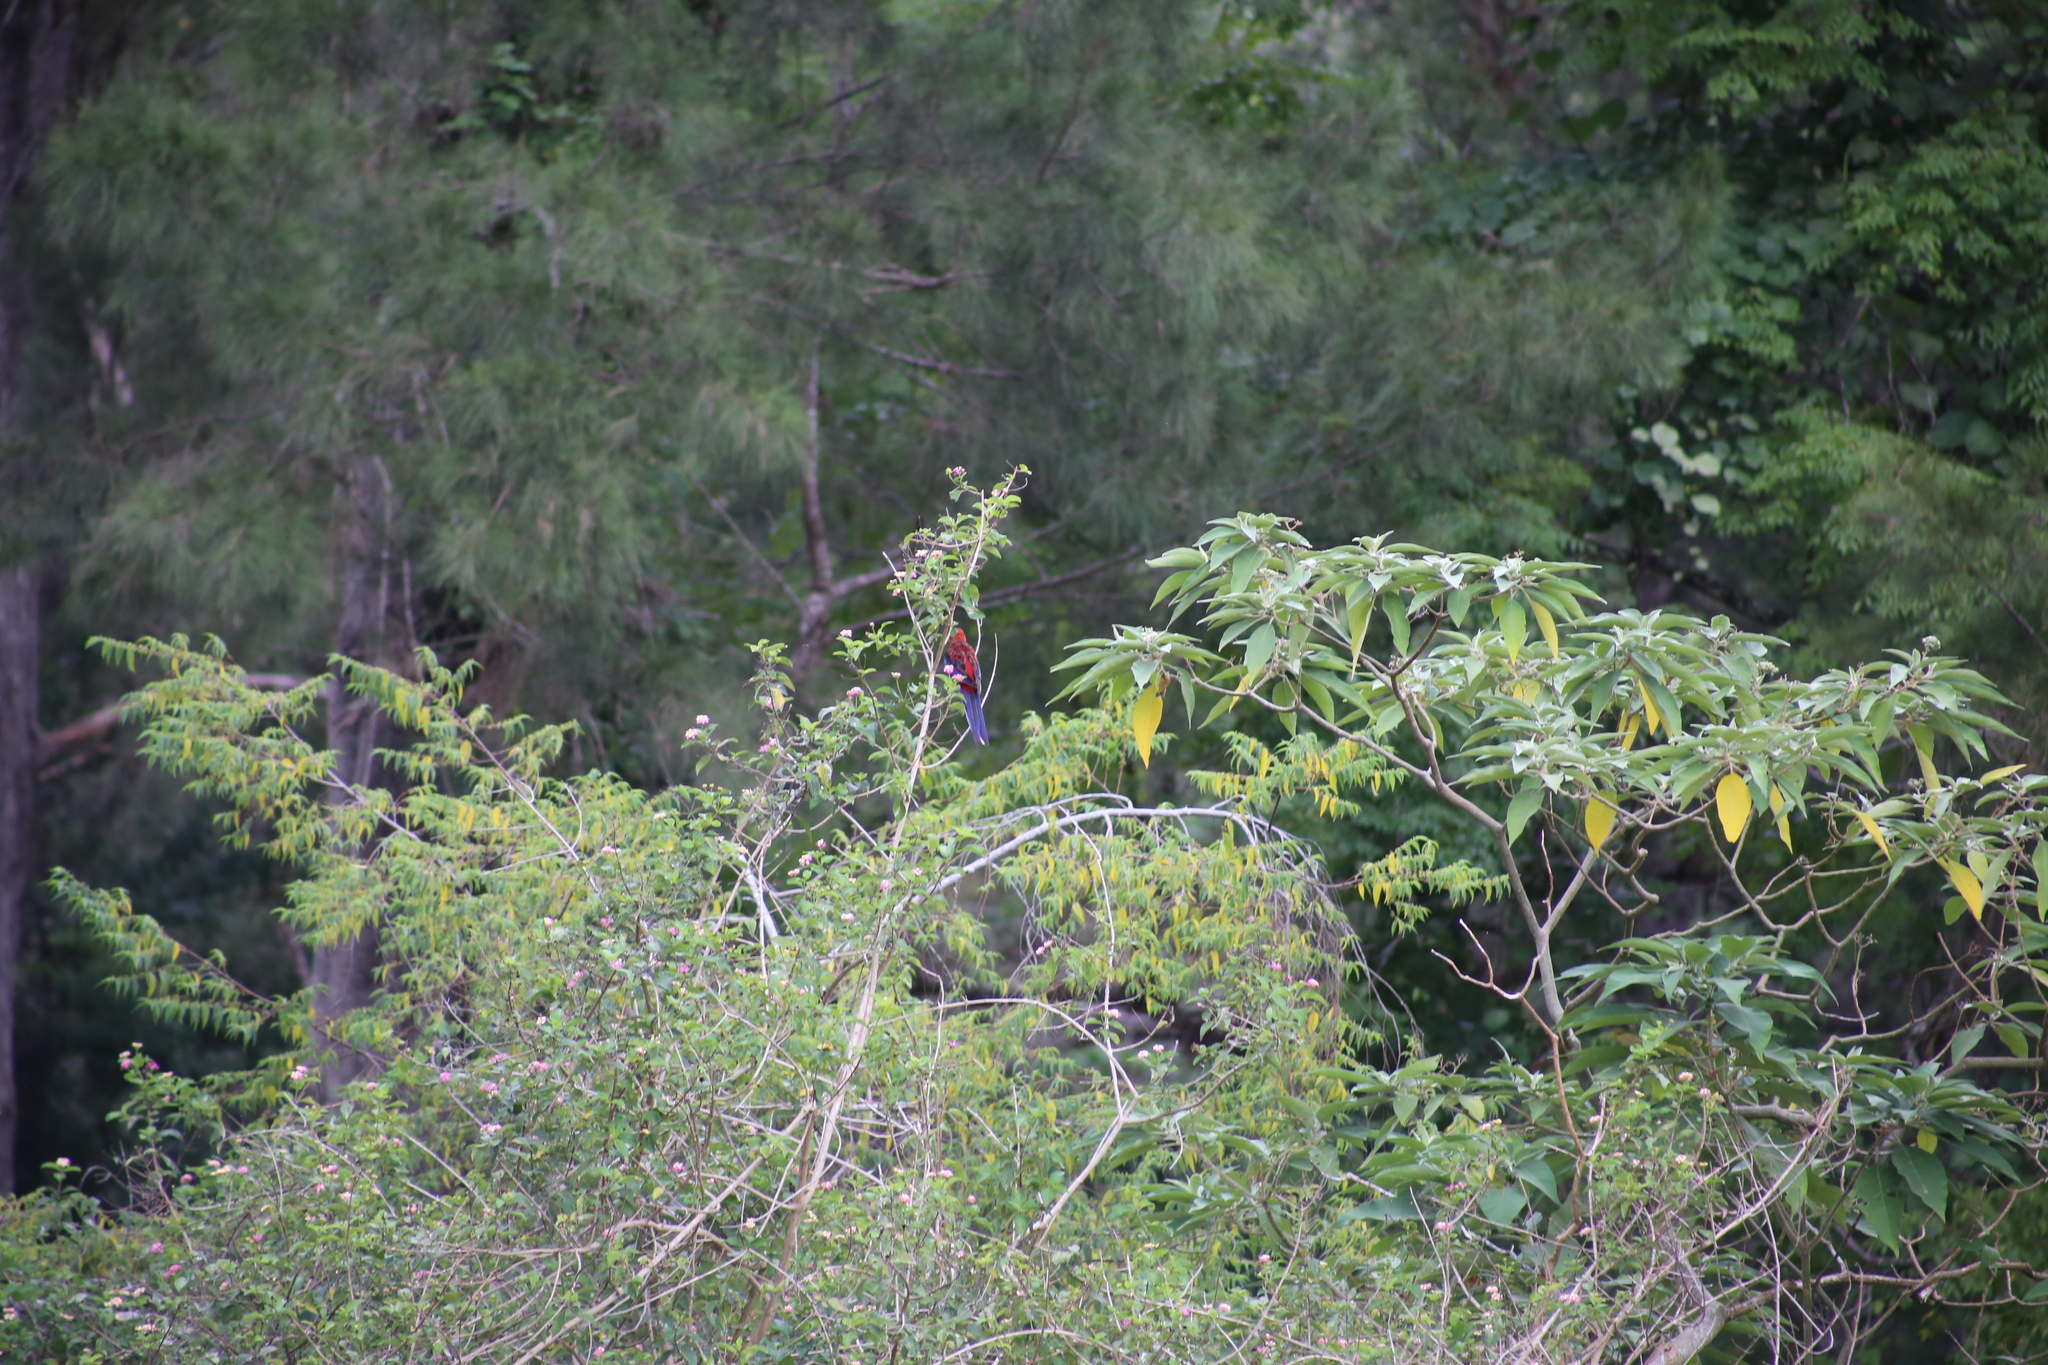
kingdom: Animalia
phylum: Chordata
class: Aves
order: Psittaciformes
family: Psittacidae
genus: Platycercus
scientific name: Platycercus elegans
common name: Crimson rosella
